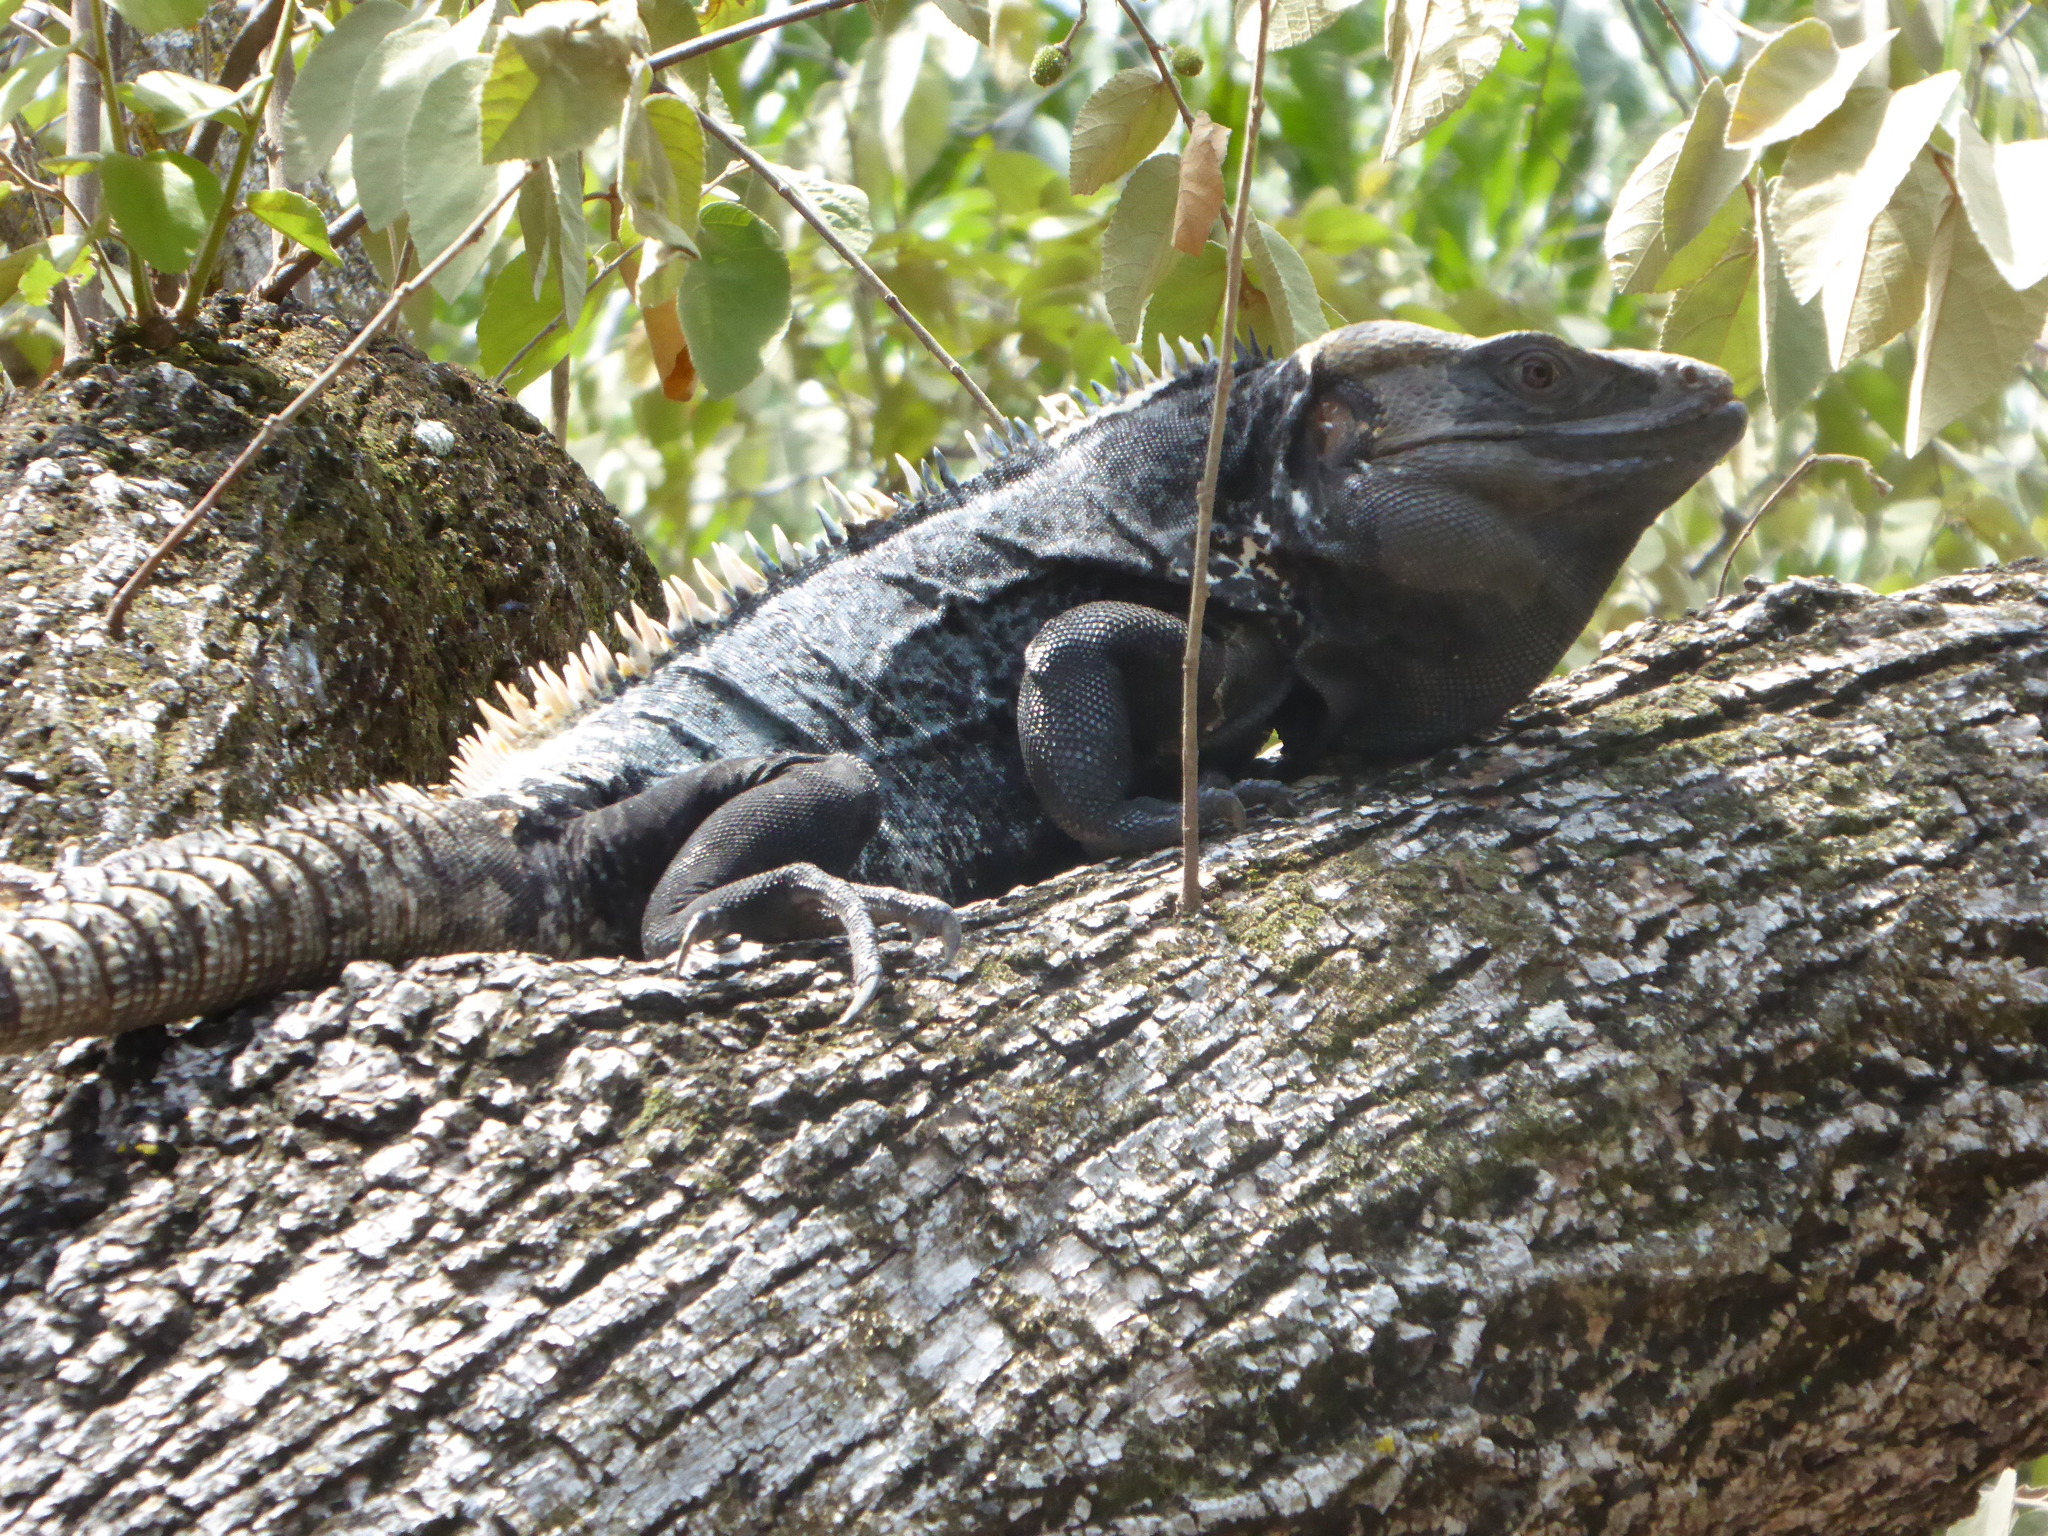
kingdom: Animalia
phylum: Chordata
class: Squamata
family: Iguanidae
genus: Ctenosaura
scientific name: Ctenosaura pectinata
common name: Guerreran spiny-tailed iguana
